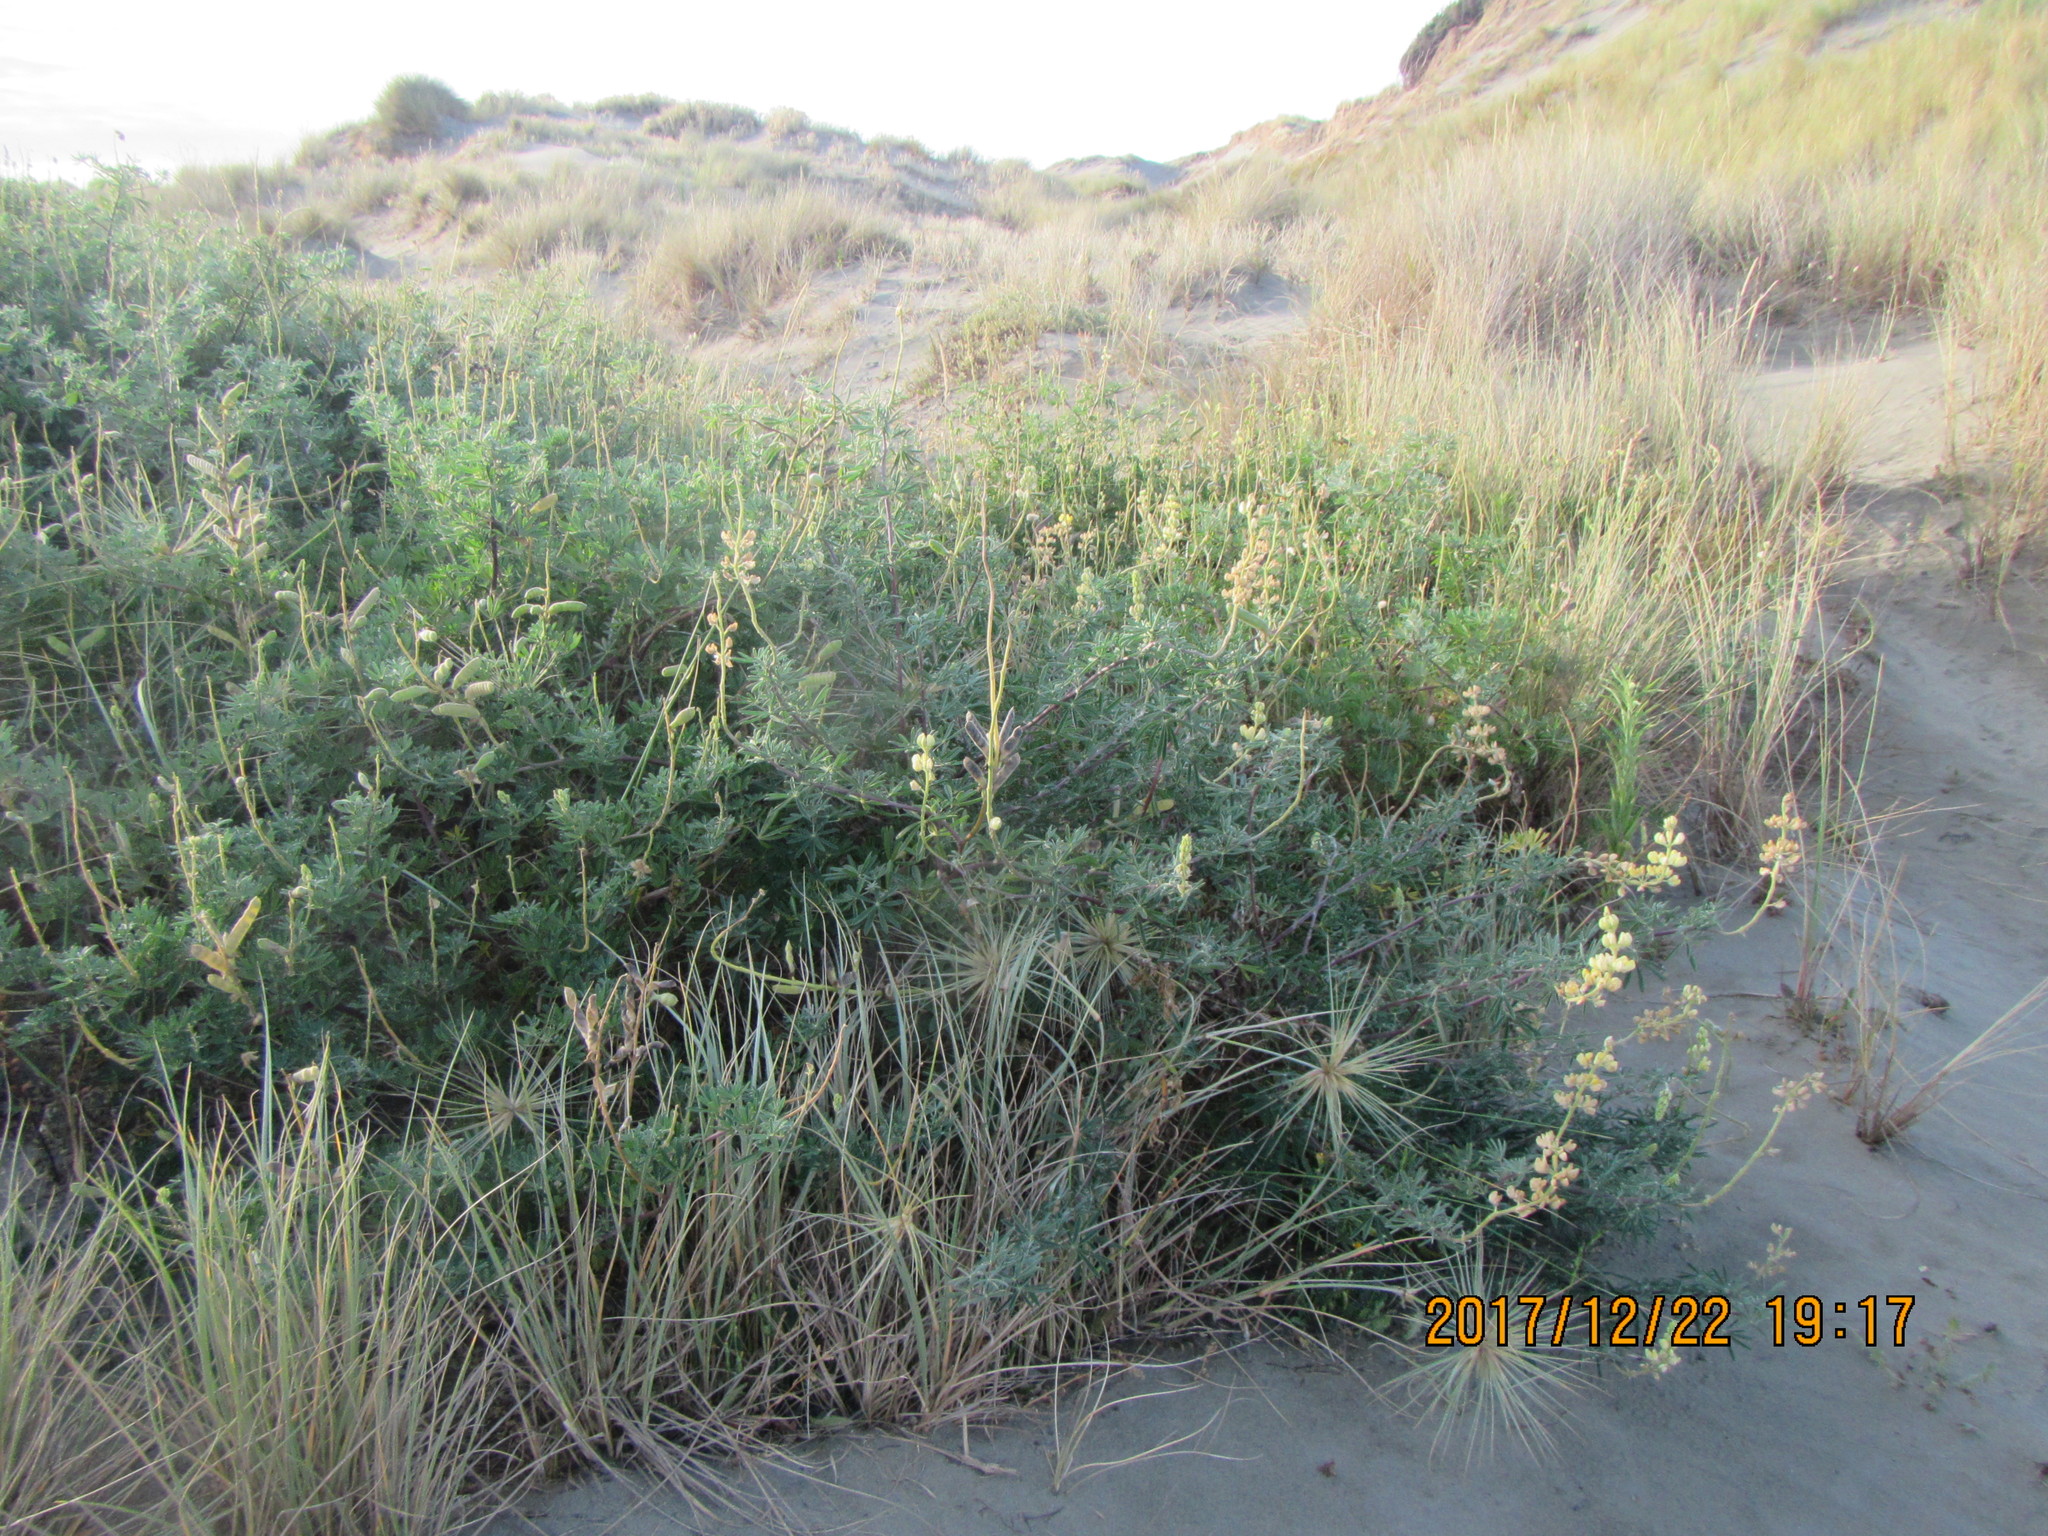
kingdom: Plantae
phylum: Tracheophyta
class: Magnoliopsida
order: Fabales
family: Fabaceae
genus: Lupinus
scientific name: Lupinus arboreus
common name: Yellow bush lupine
